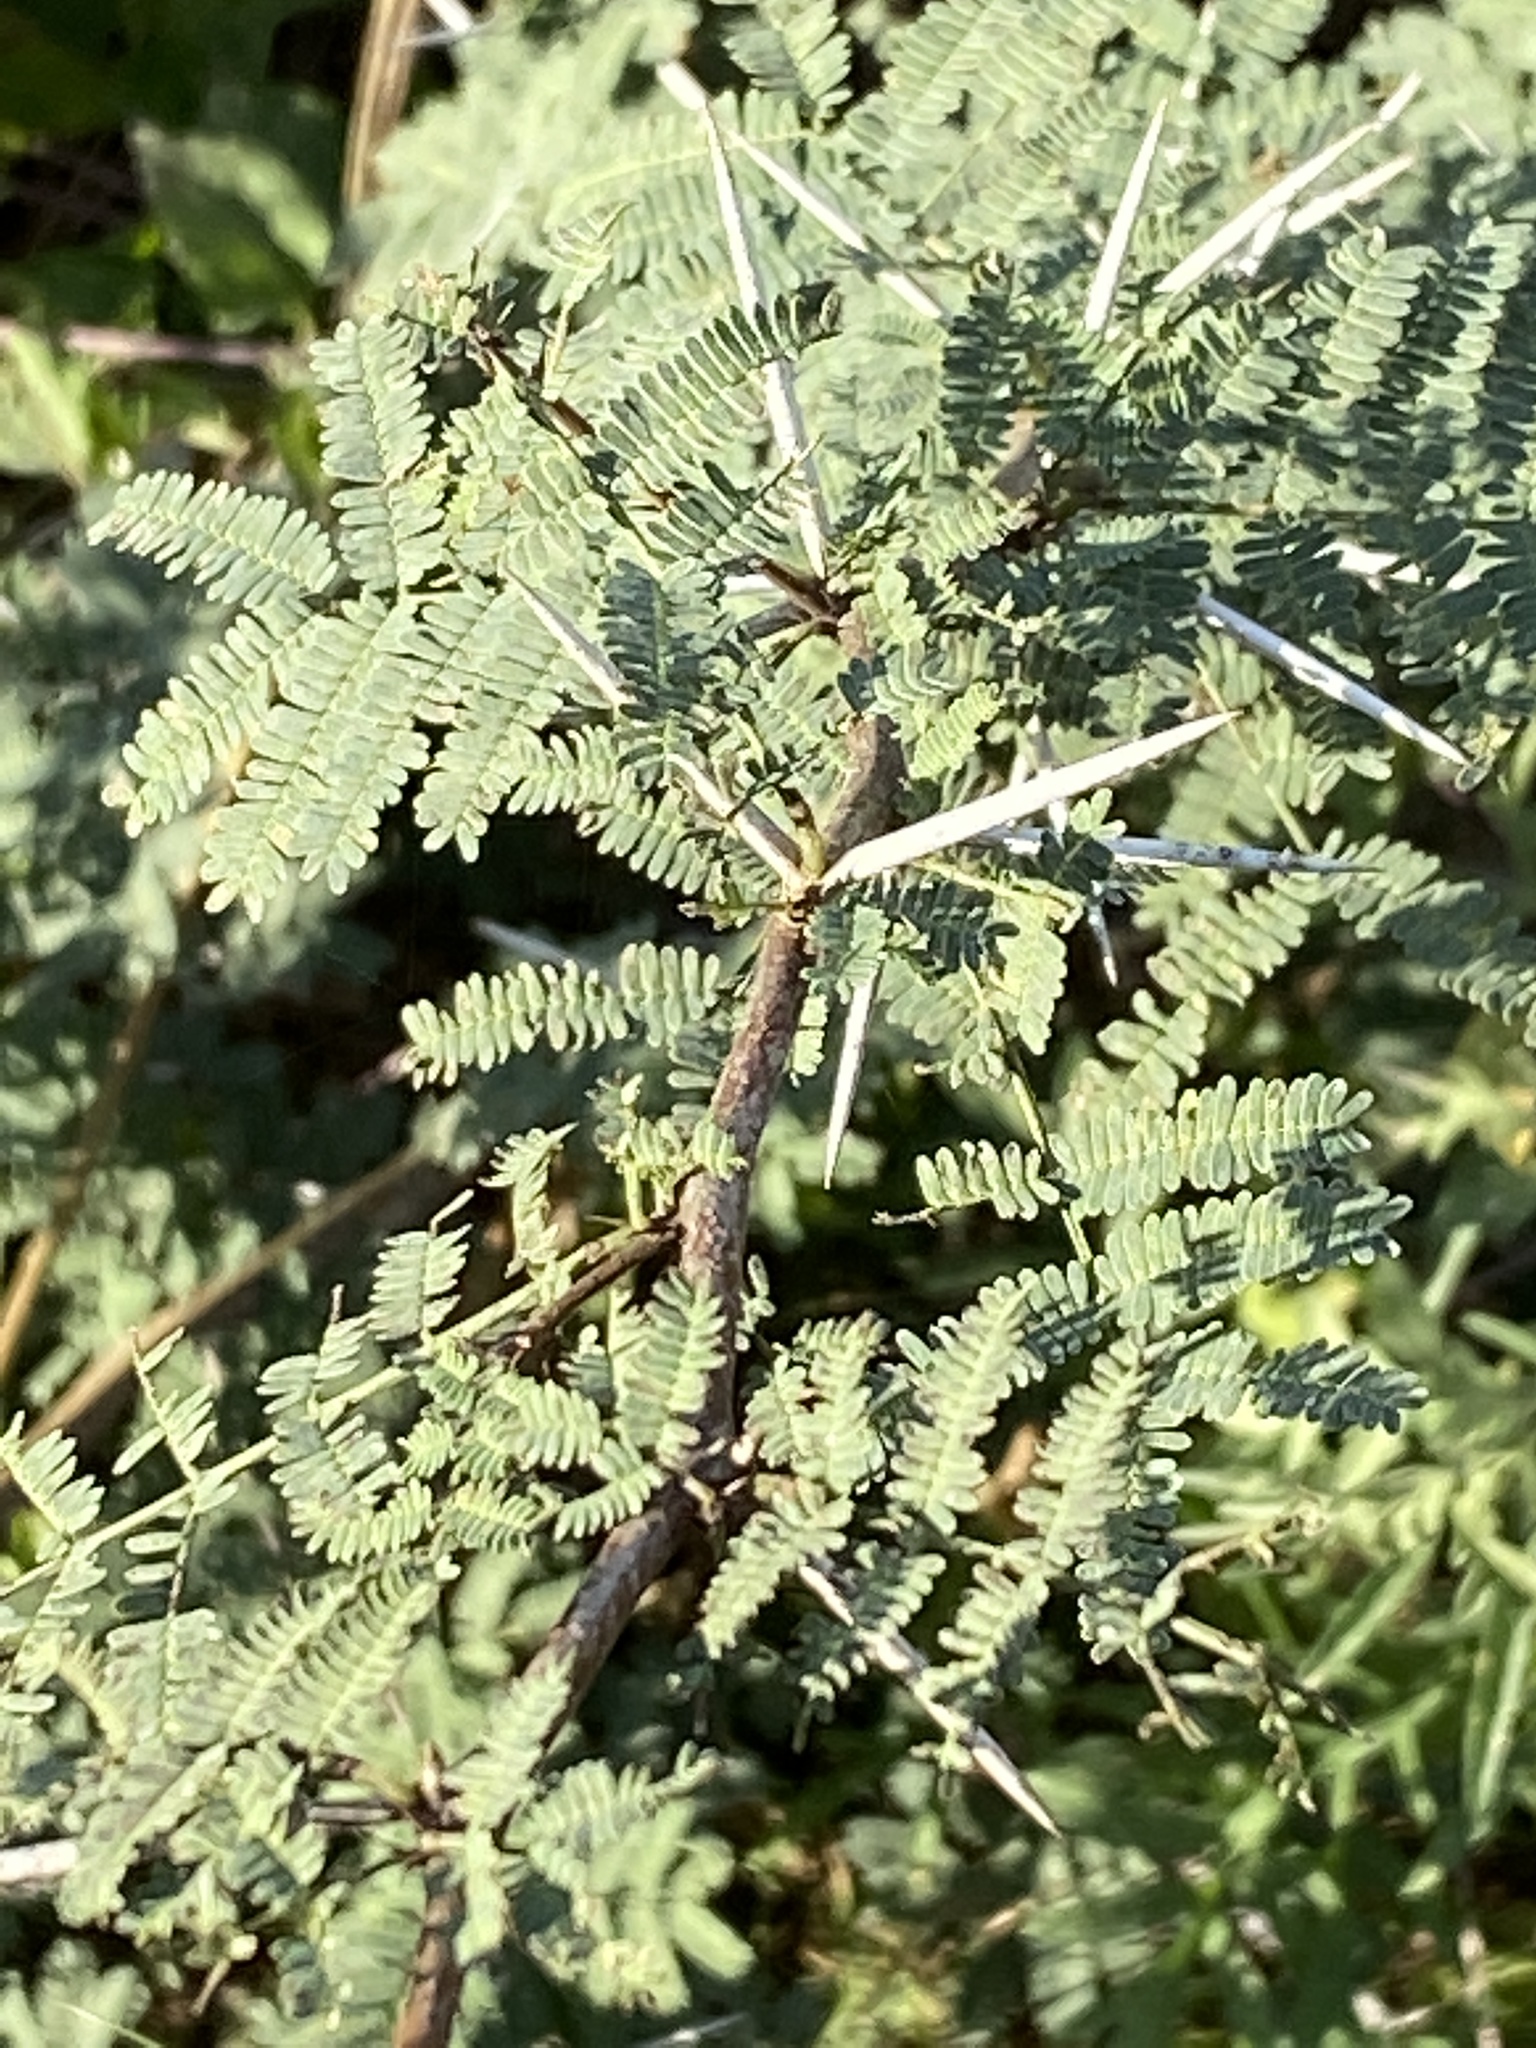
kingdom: Plantae
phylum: Tracheophyta
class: Magnoliopsida
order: Fabales
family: Fabaceae
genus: Vachellia
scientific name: Vachellia farnesiana
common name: Sweet acacia
